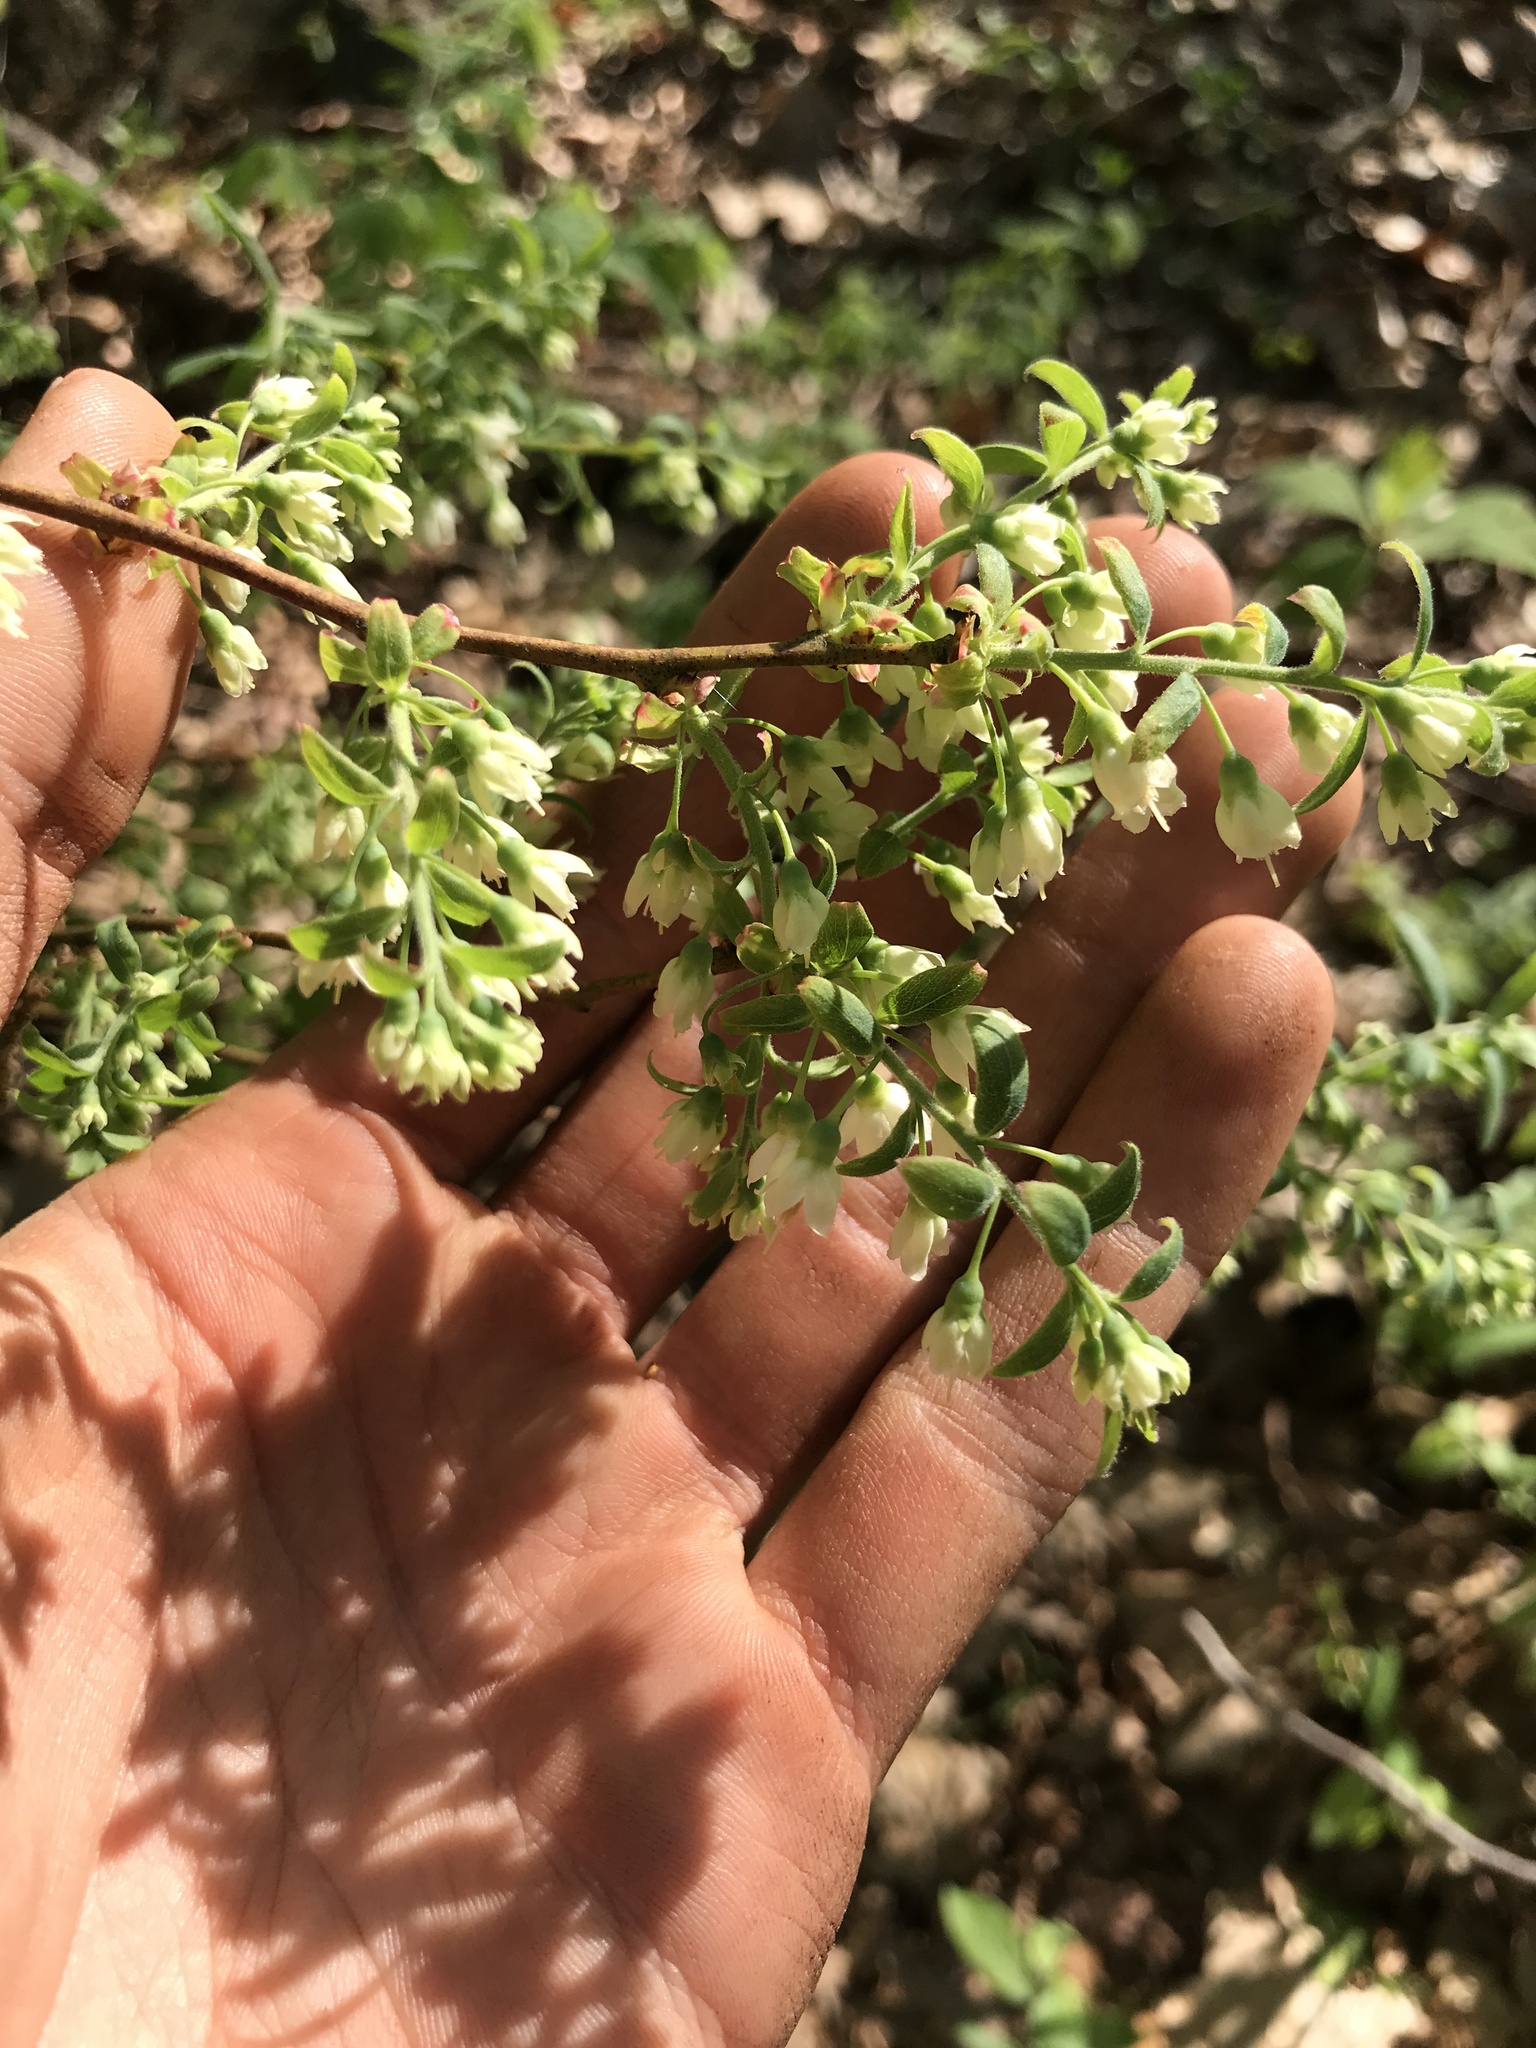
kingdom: Plantae
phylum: Tracheophyta
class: Magnoliopsida
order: Ericales
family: Ericaceae
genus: Vaccinium
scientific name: Vaccinium stamineum
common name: Deerberry
